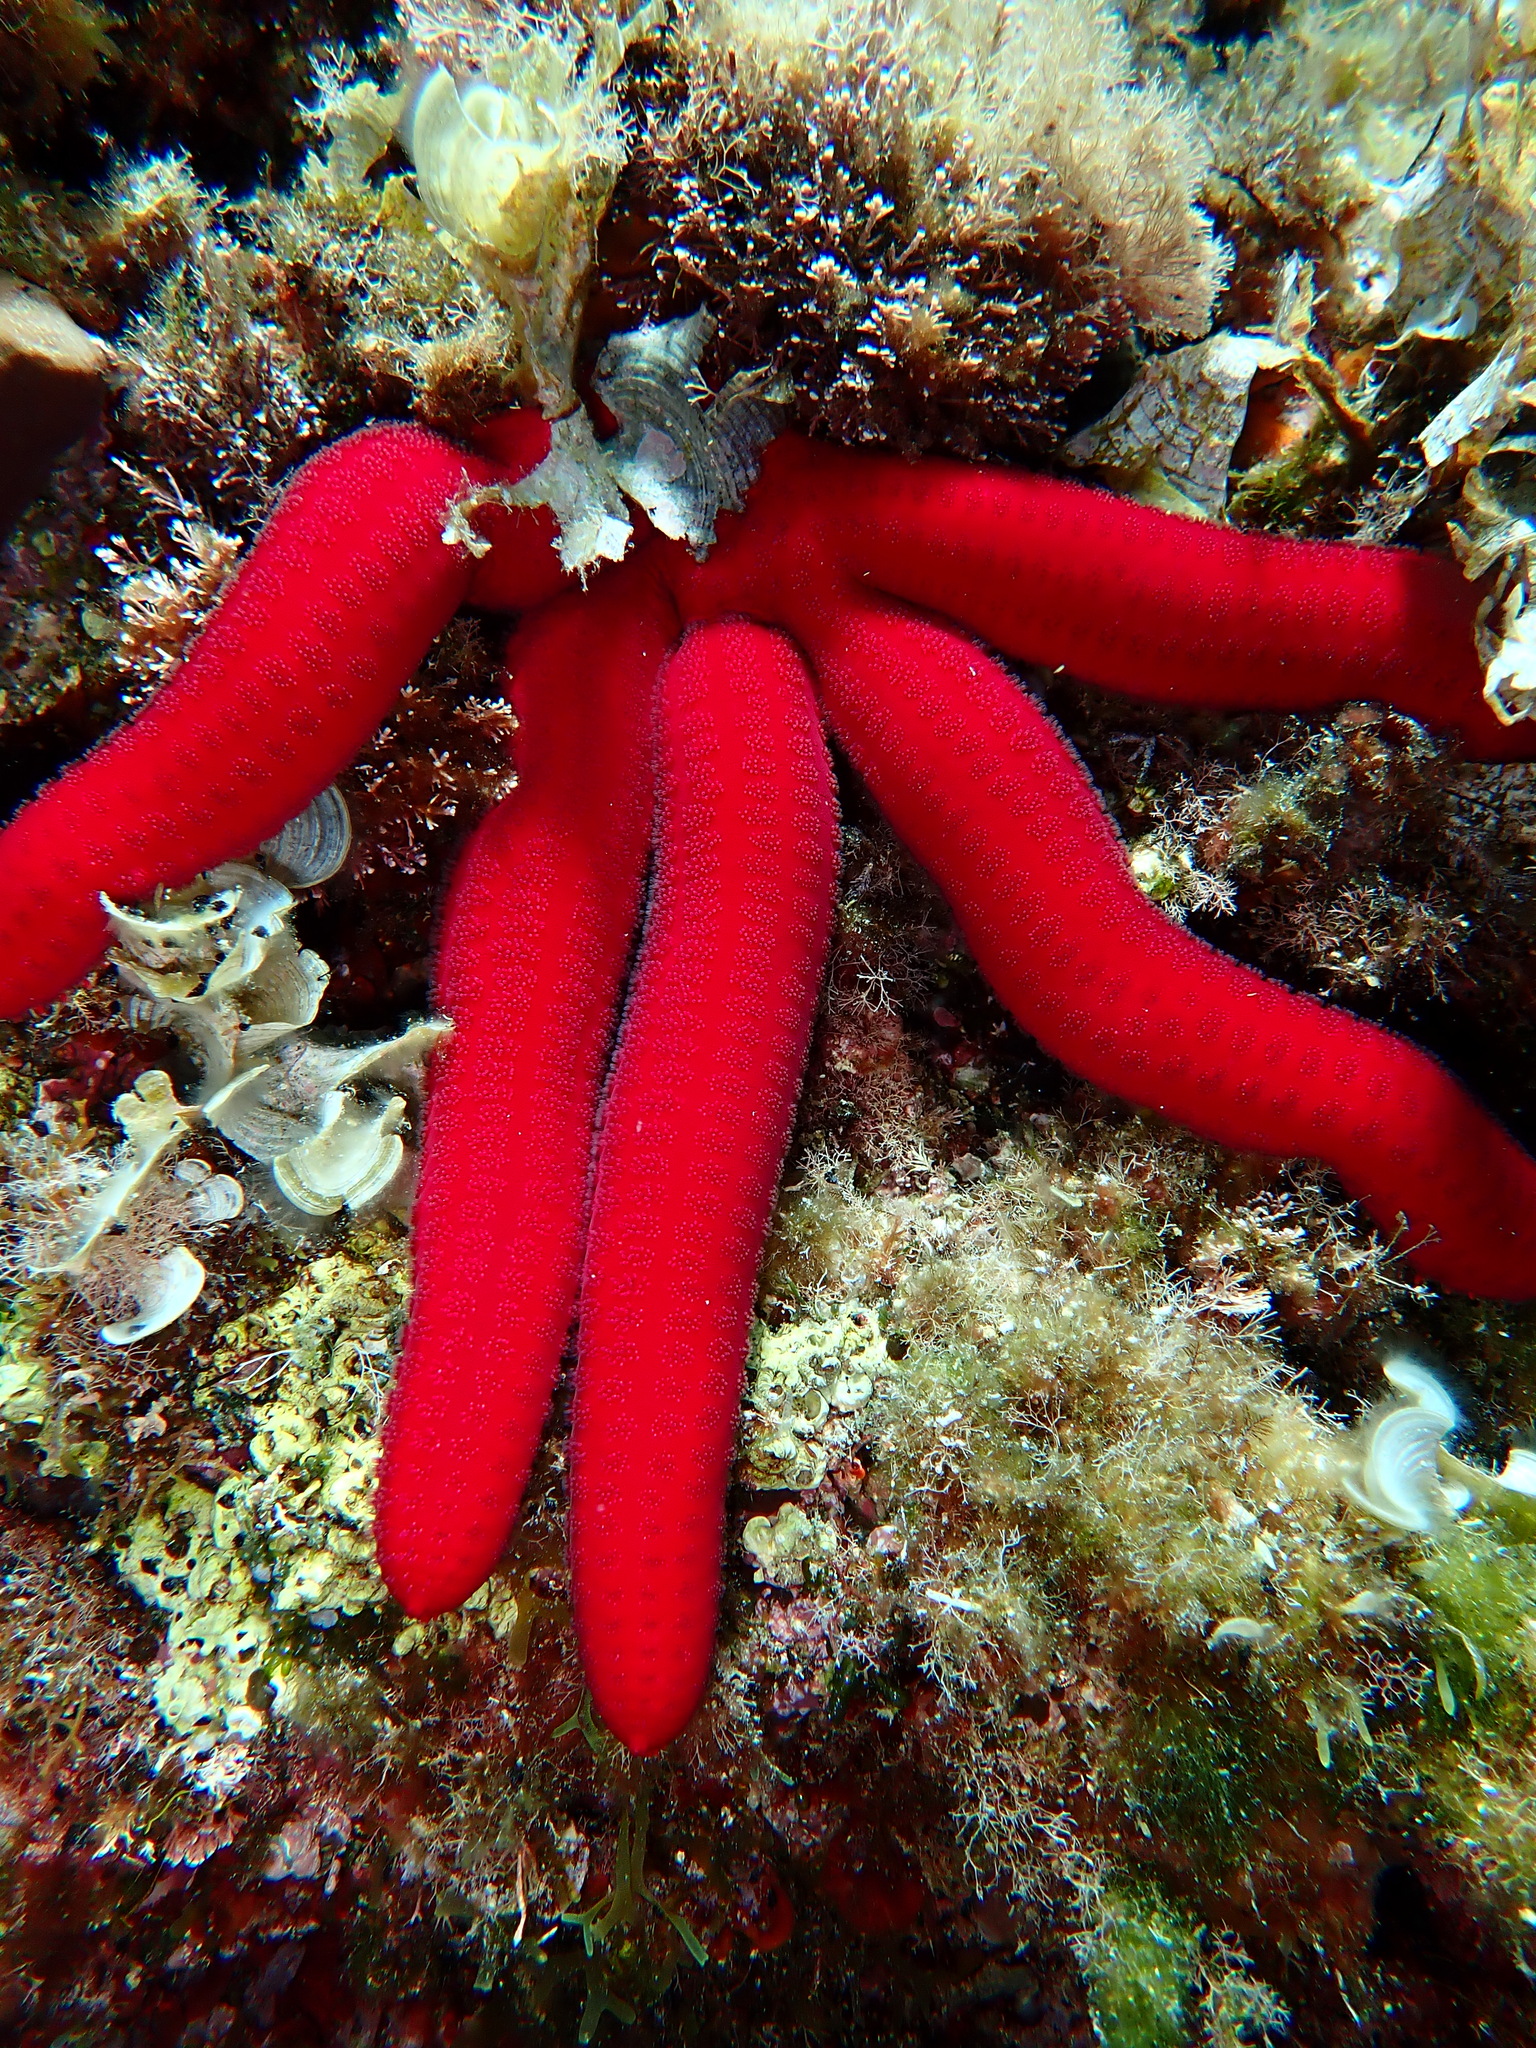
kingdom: Animalia
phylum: Echinodermata
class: Asteroidea
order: Valvatida
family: Ophidiasteridae
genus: Ophidiaster
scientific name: Ophidiaster ophidianus
